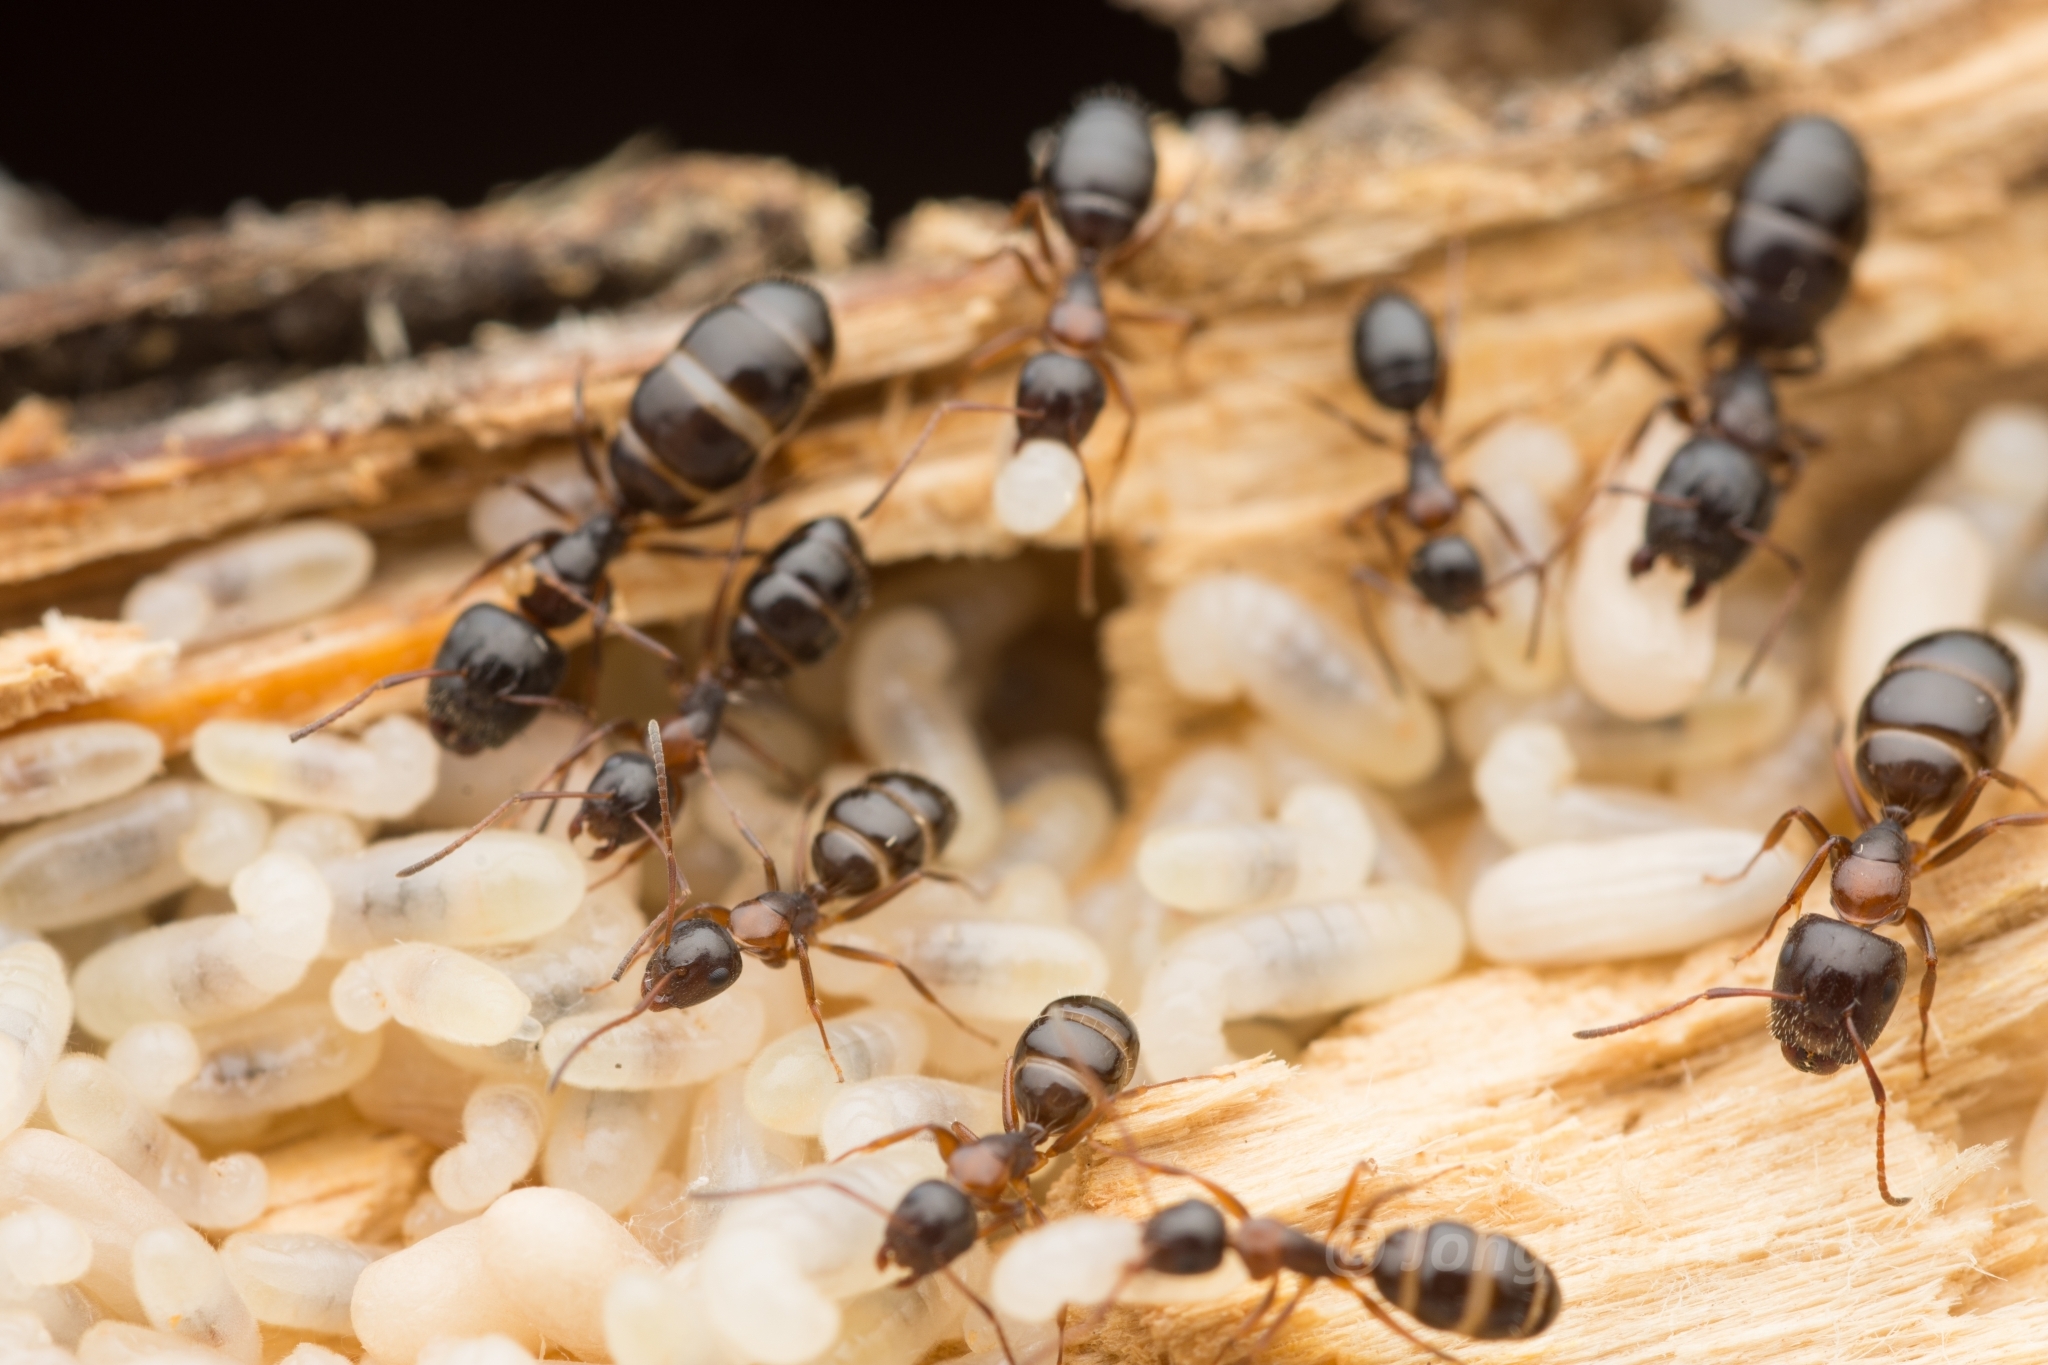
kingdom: Animalia
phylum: Arthropoda
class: Insecta
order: Hymenoptera
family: Formicidae
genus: Camponotus
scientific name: Camponotus vitiosus
